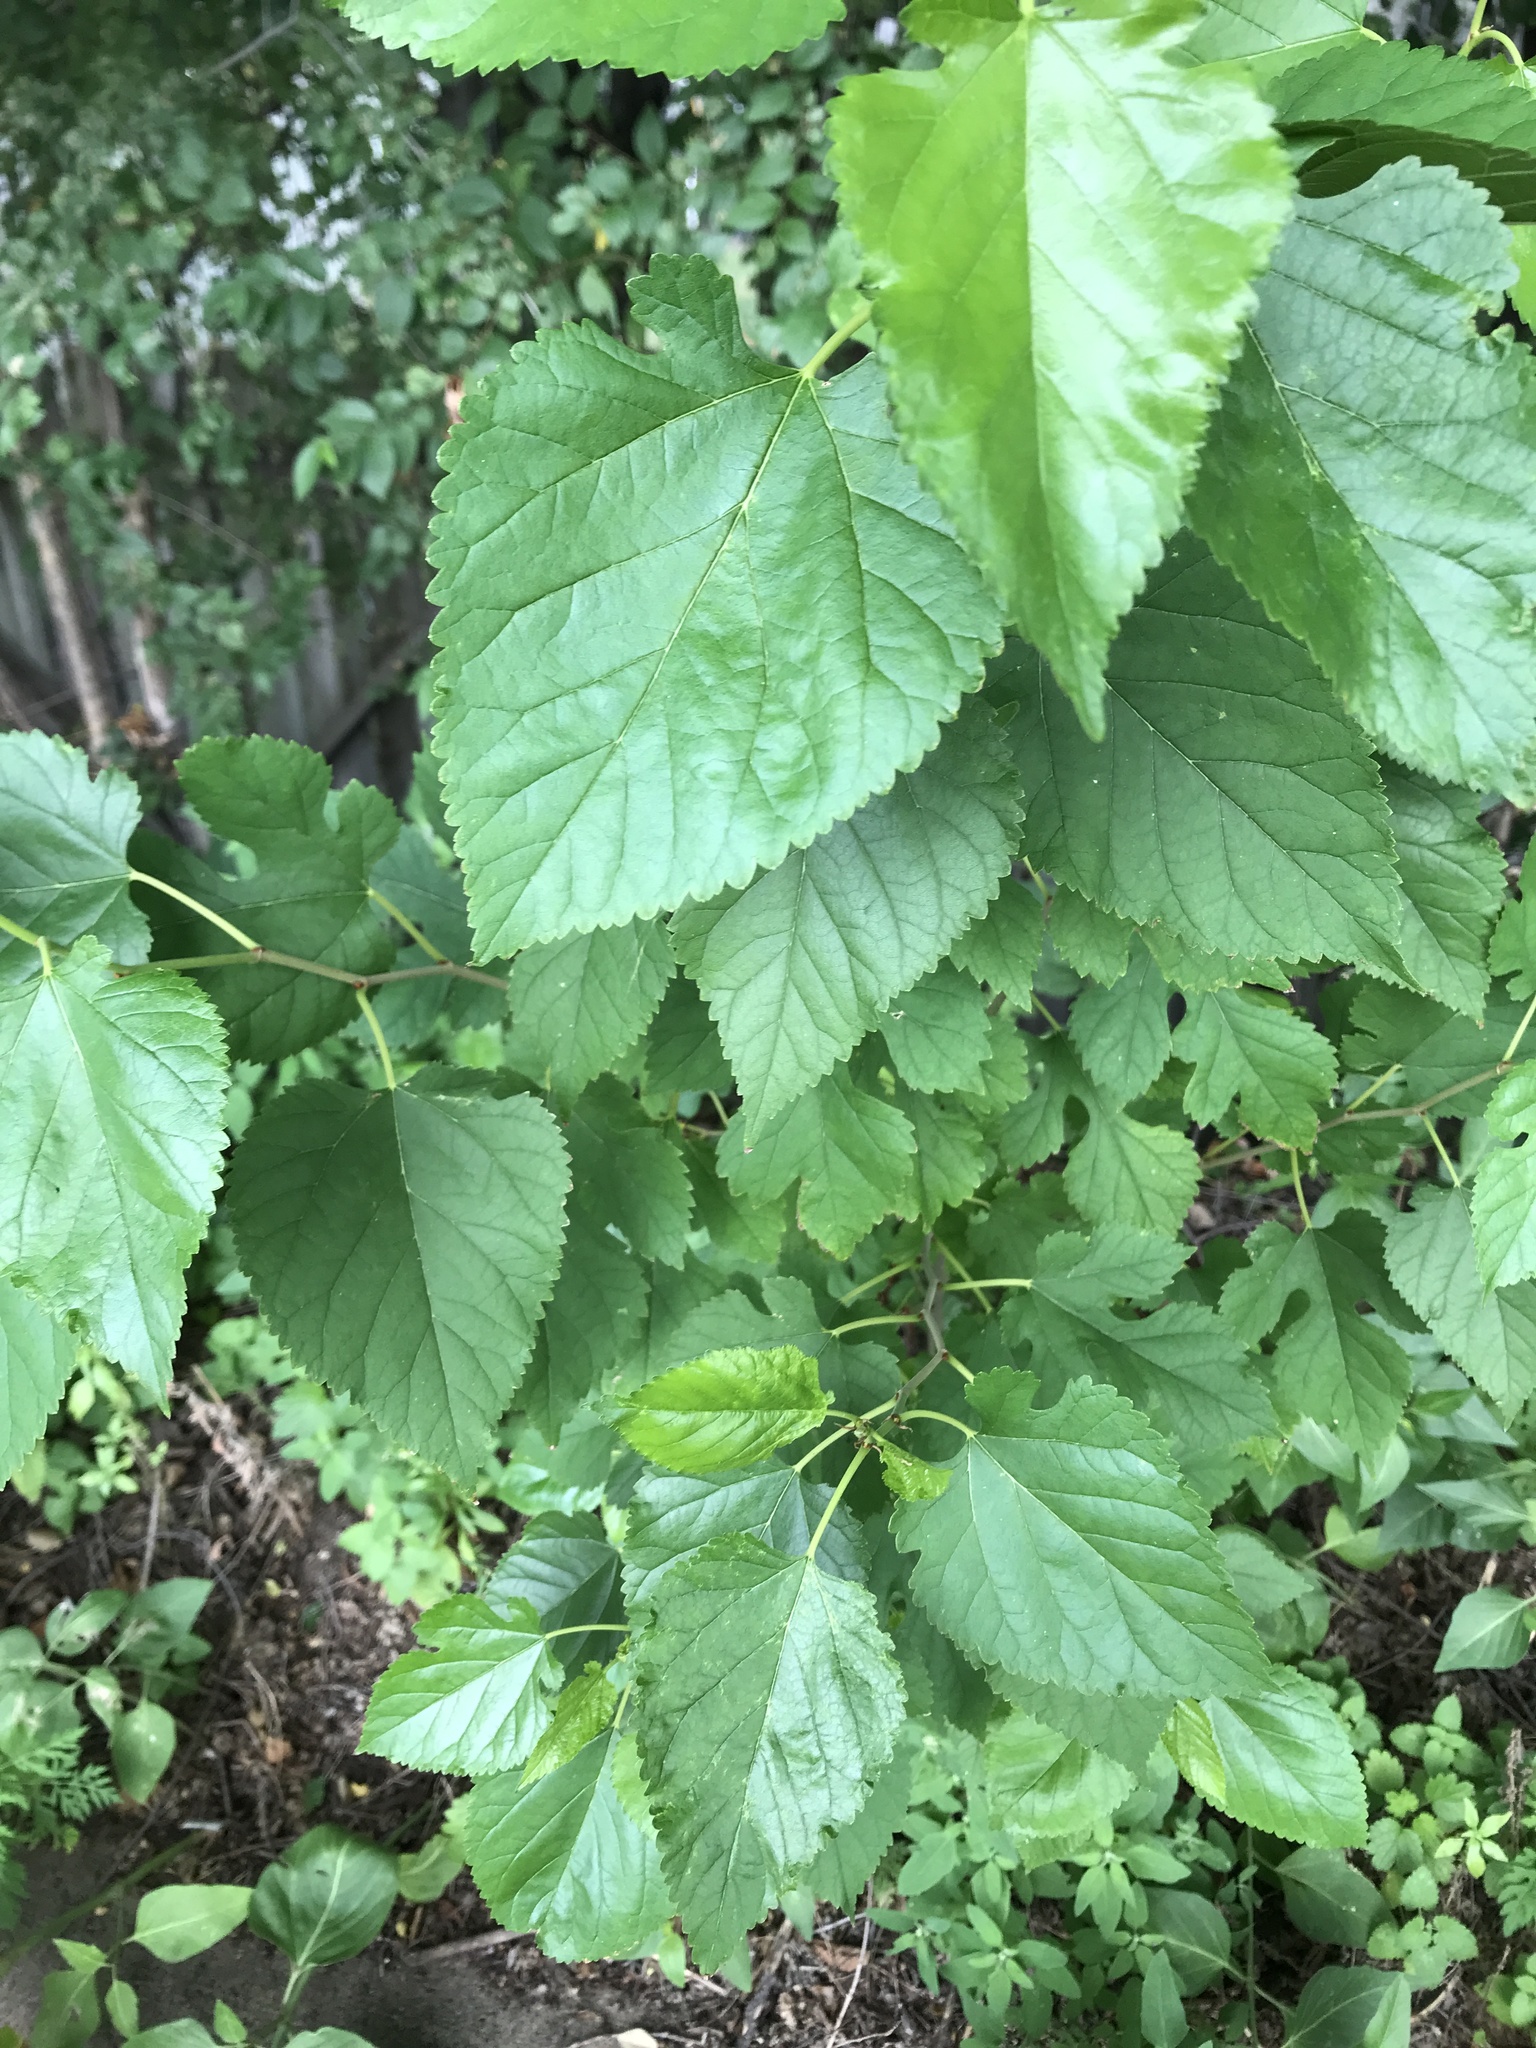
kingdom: Plantae
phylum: Tracheophyta
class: Magnoliopsida
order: Rosales
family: Moraceae
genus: Morus
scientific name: Morus alba
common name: White mulberry
